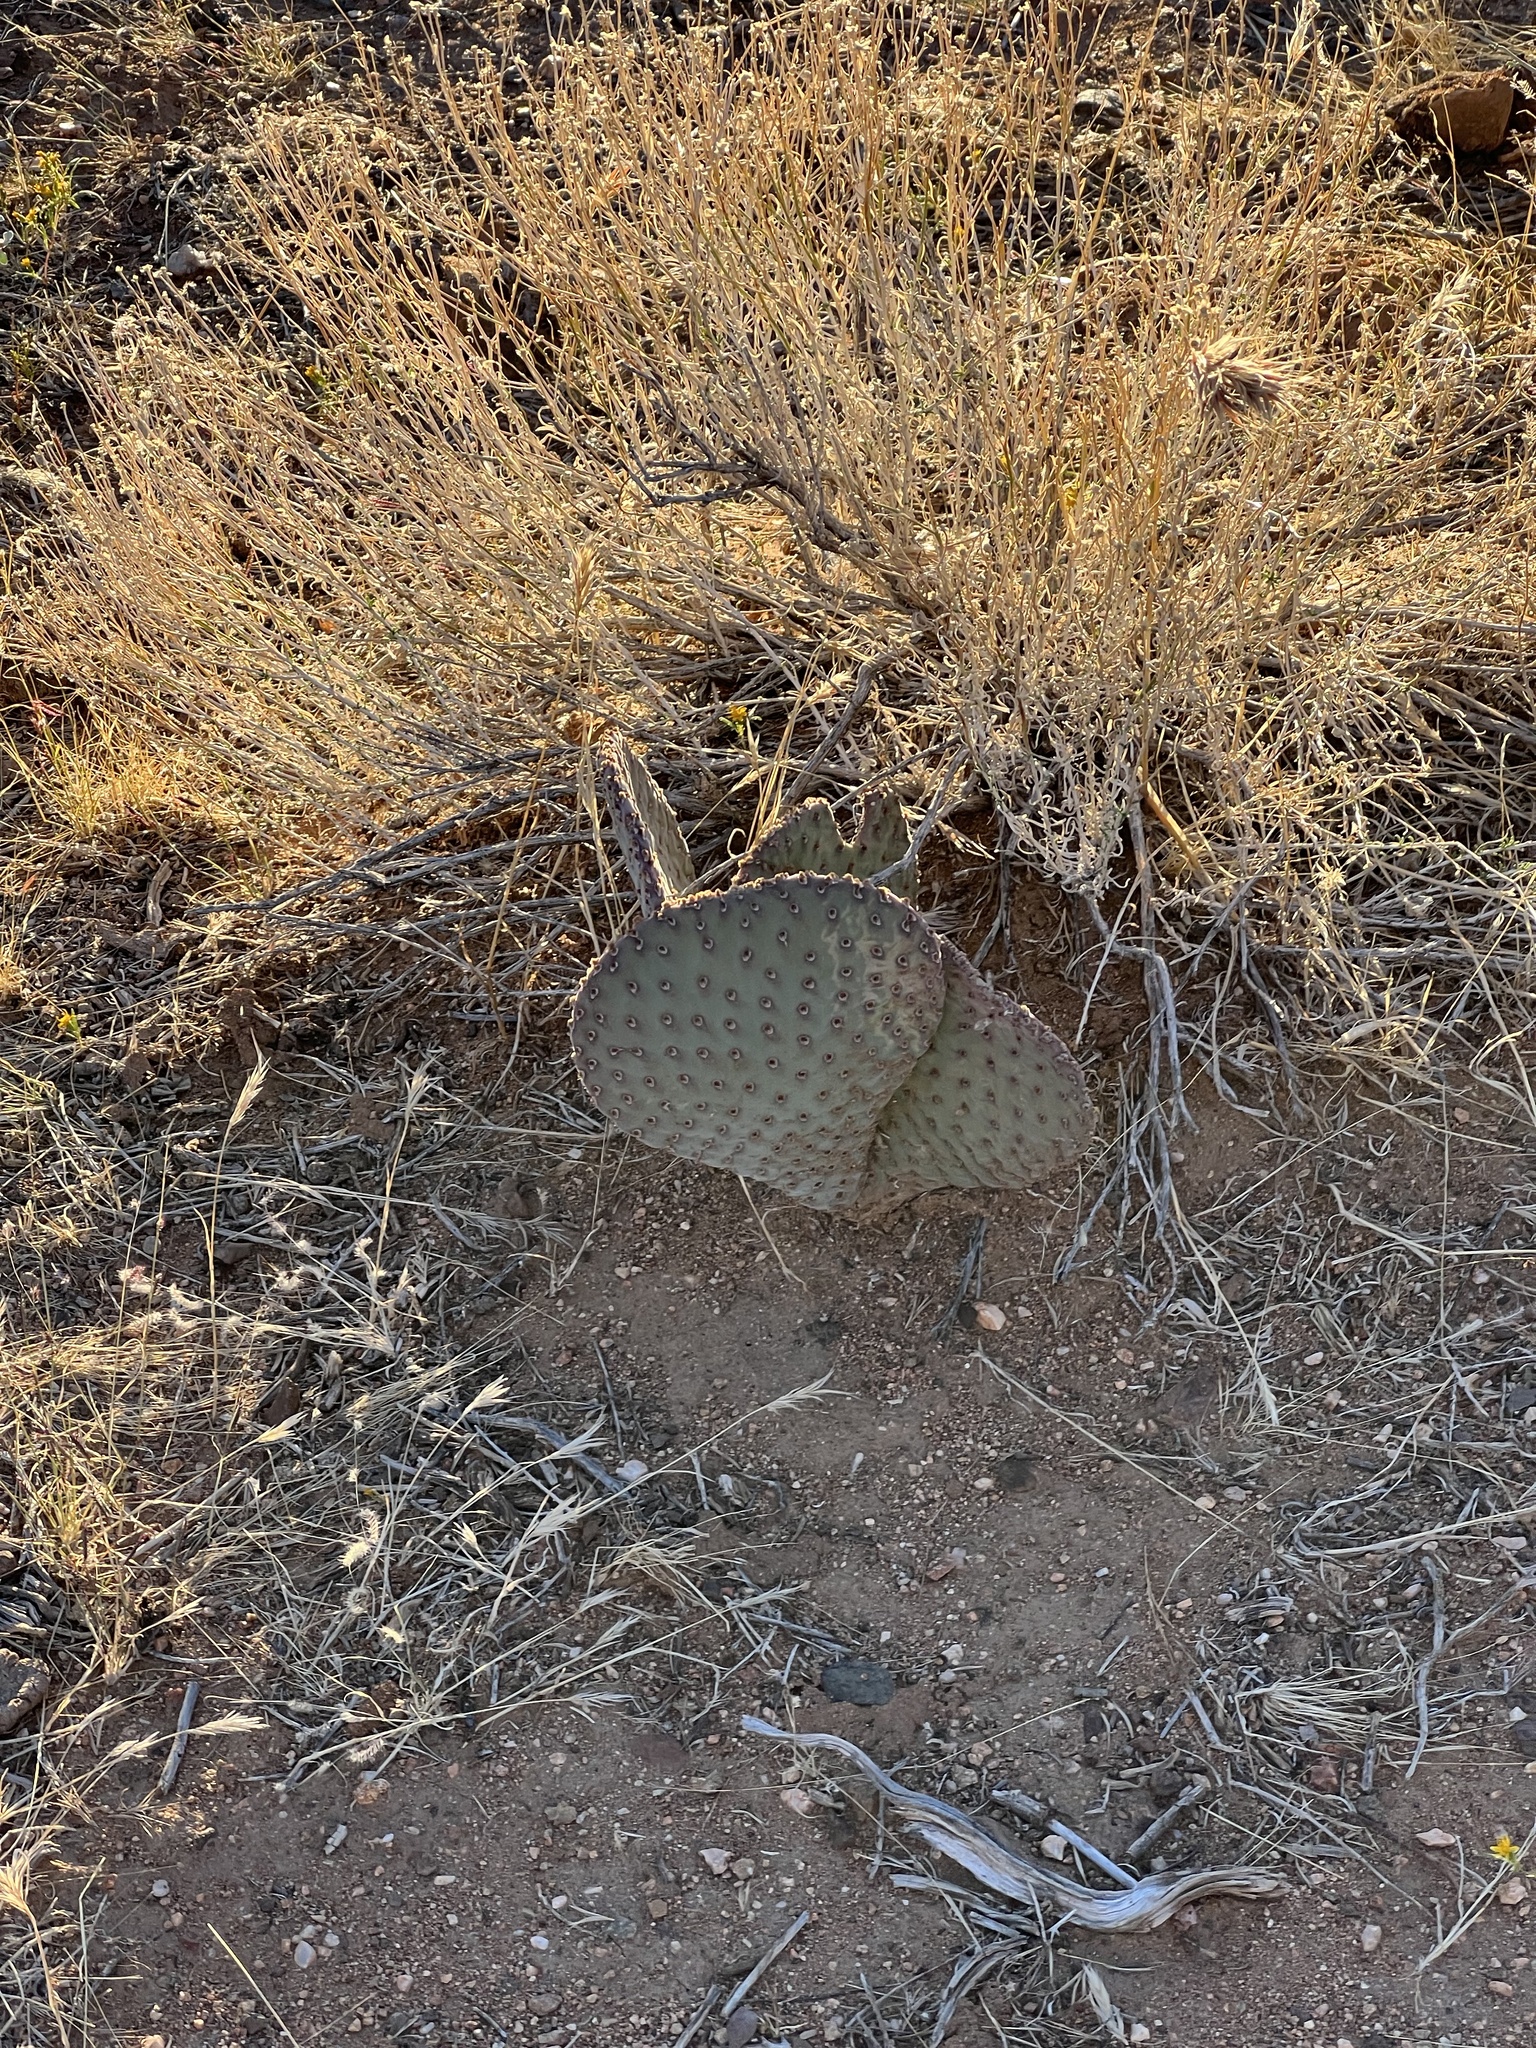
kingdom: Plantae
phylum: Tracheophyta
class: Magnoliopsida
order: Caryophyllales
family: Cactaceae
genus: Opuntia
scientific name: Opuntia basilaris
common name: Beavertail prickly-pear
